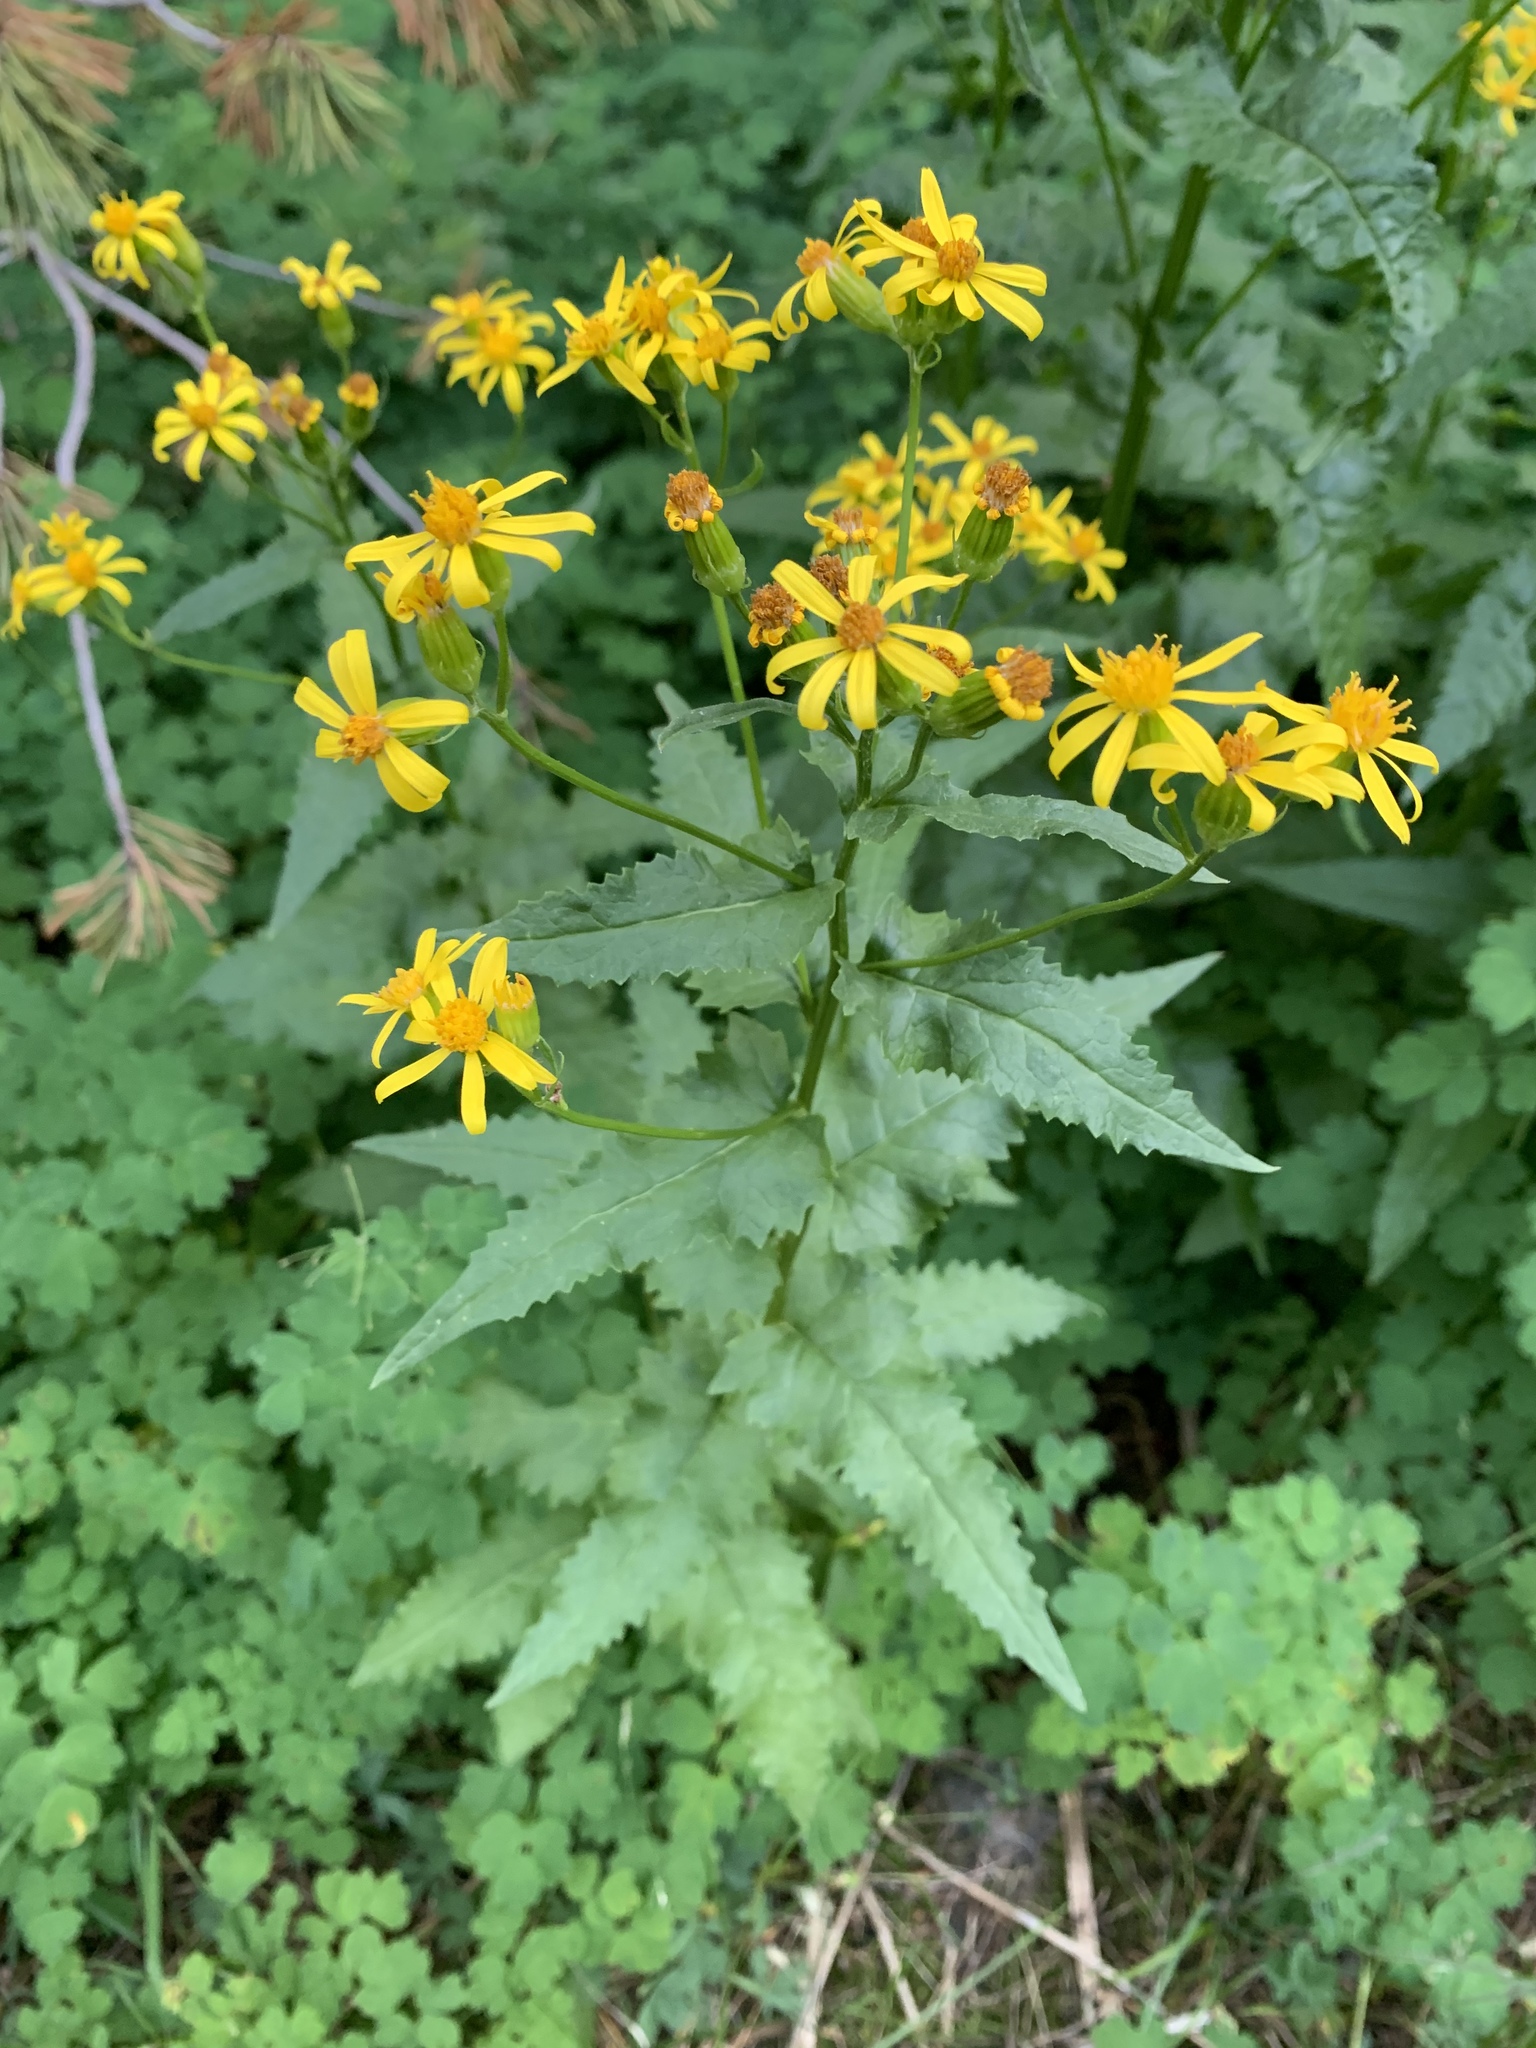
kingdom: Plantae
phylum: Tracheophyta
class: Magnoliopsida
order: Asterales
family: Asteraceae
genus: Senecio
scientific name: Senecio triangularis
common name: Arrowleaf butterweed
